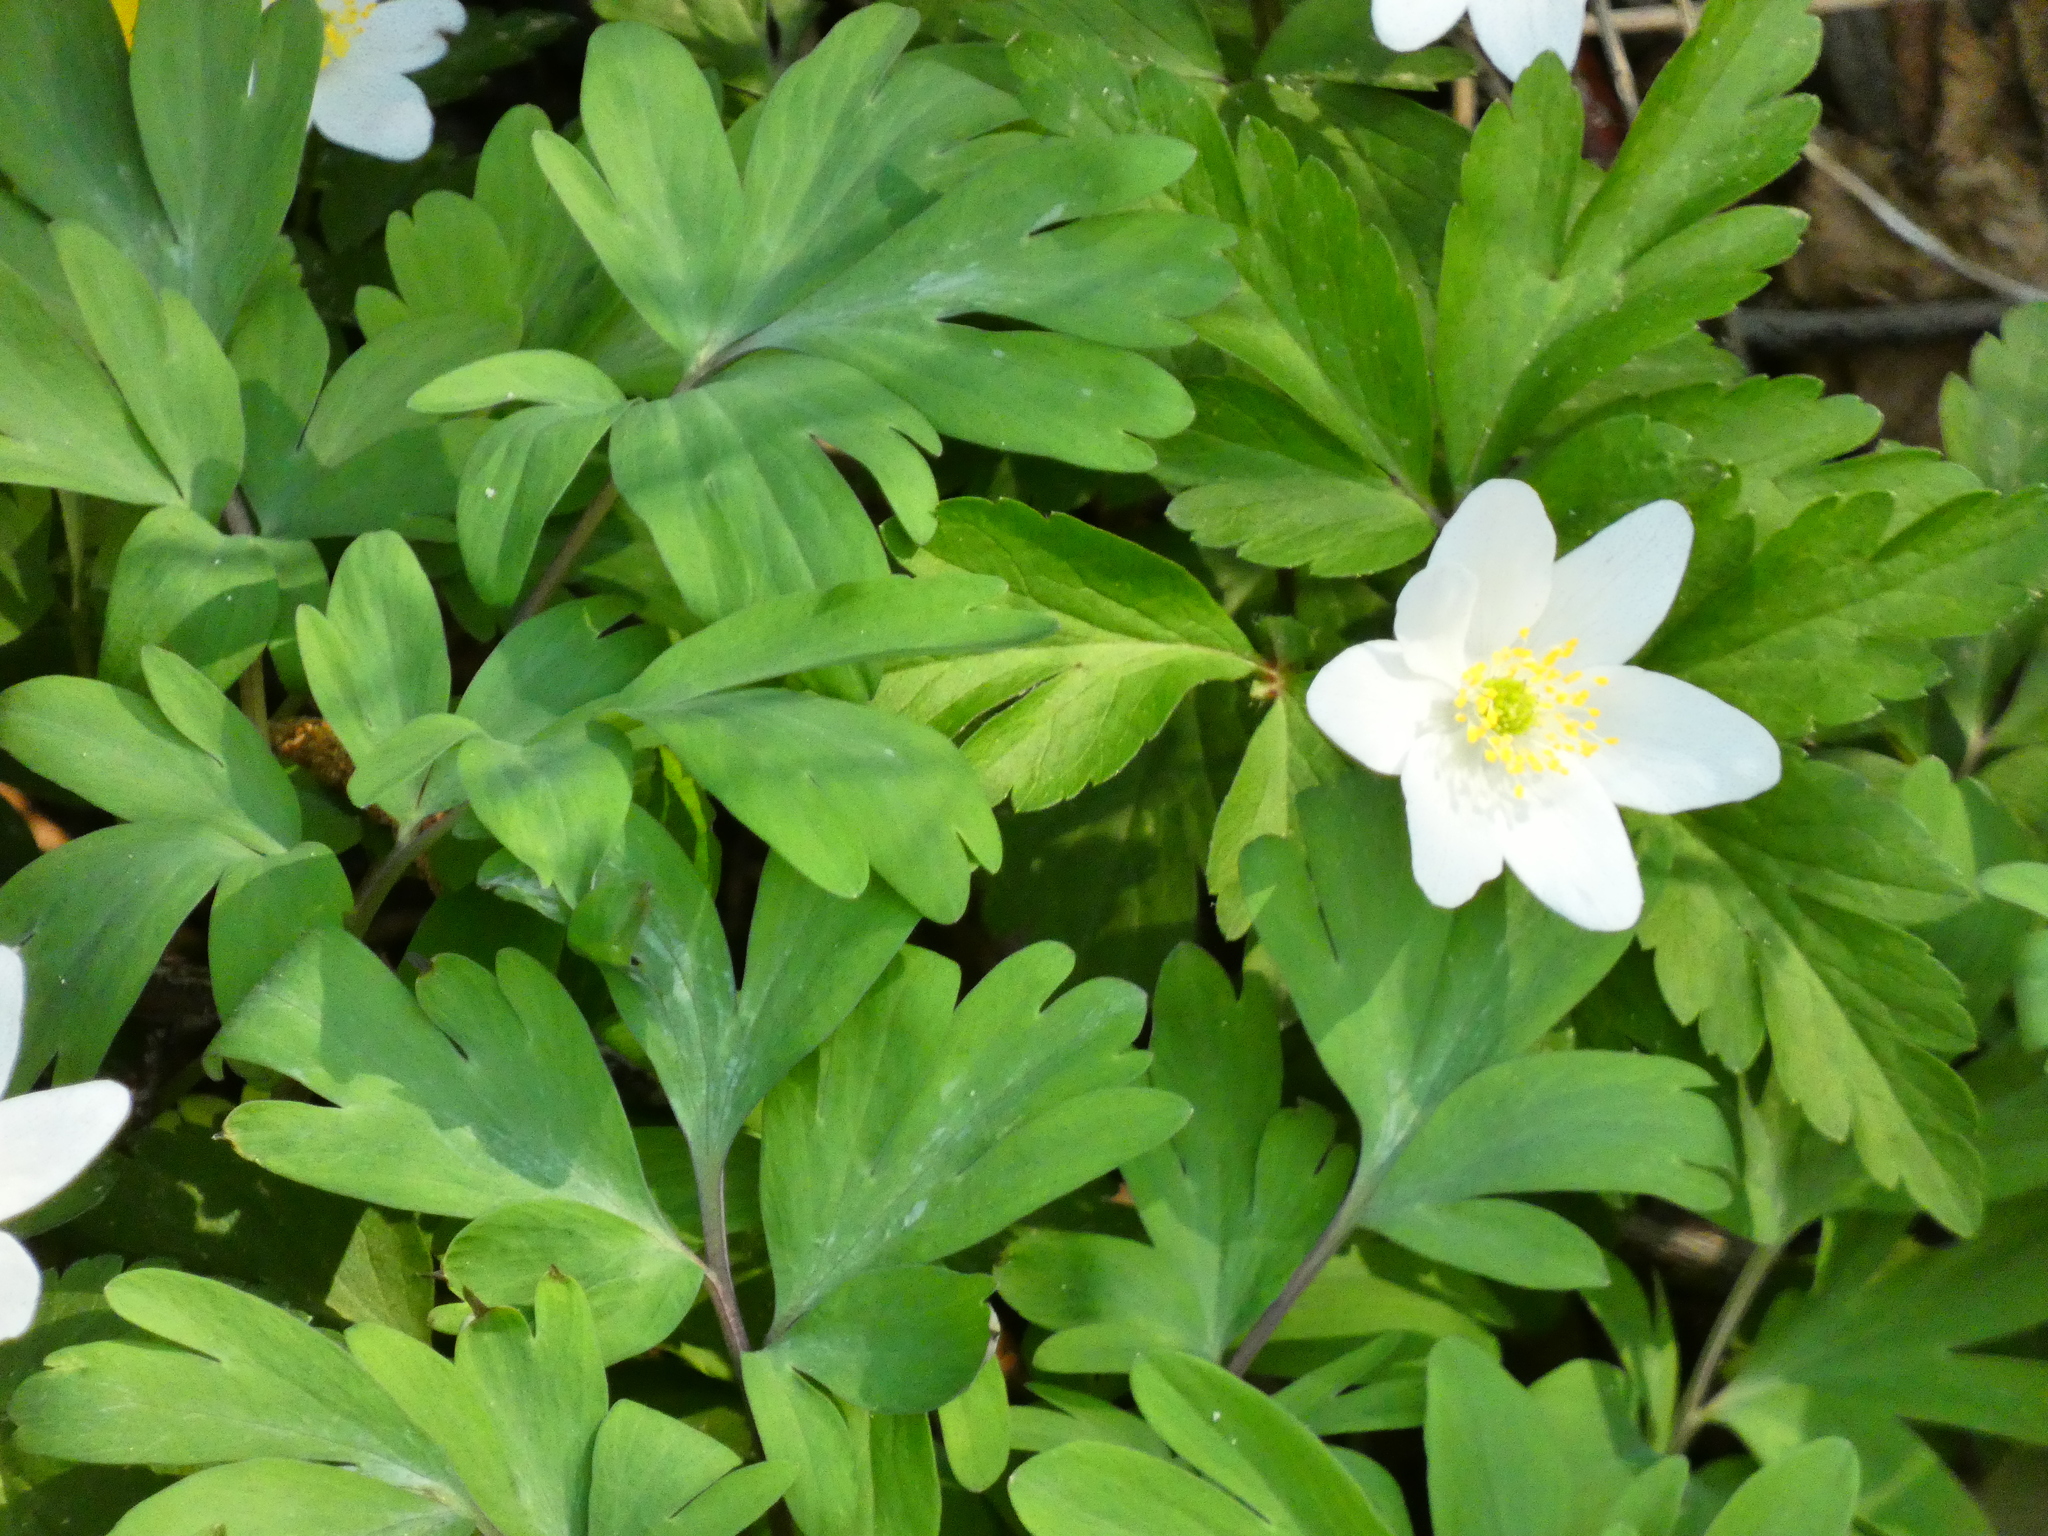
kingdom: Plantae
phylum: Tracheophyta
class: Magnoliopsida
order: Ranunculales
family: Ranunculaceae
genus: Anemone
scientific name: Anemone nemorosa
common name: Wood anemone
